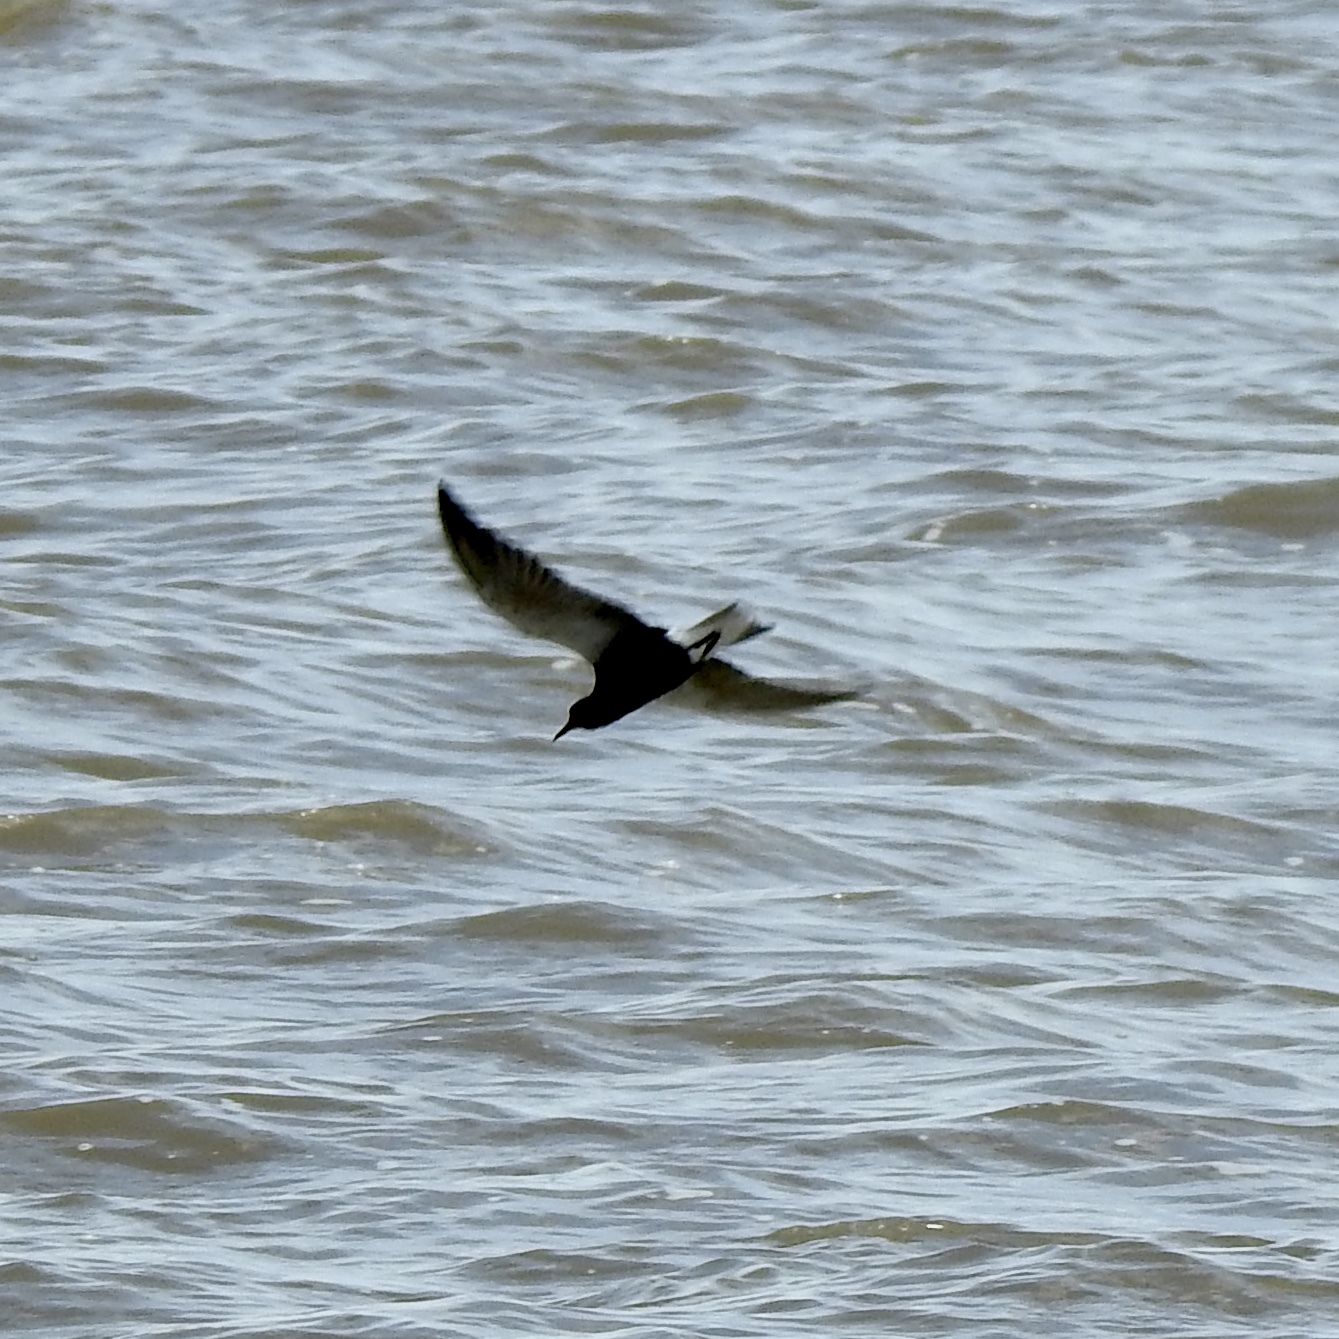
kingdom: Animalia
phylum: Chordata
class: Aves
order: Charadriiformes
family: Laridae
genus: Chlidonias
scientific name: Chlidonias niger
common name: Black tern
